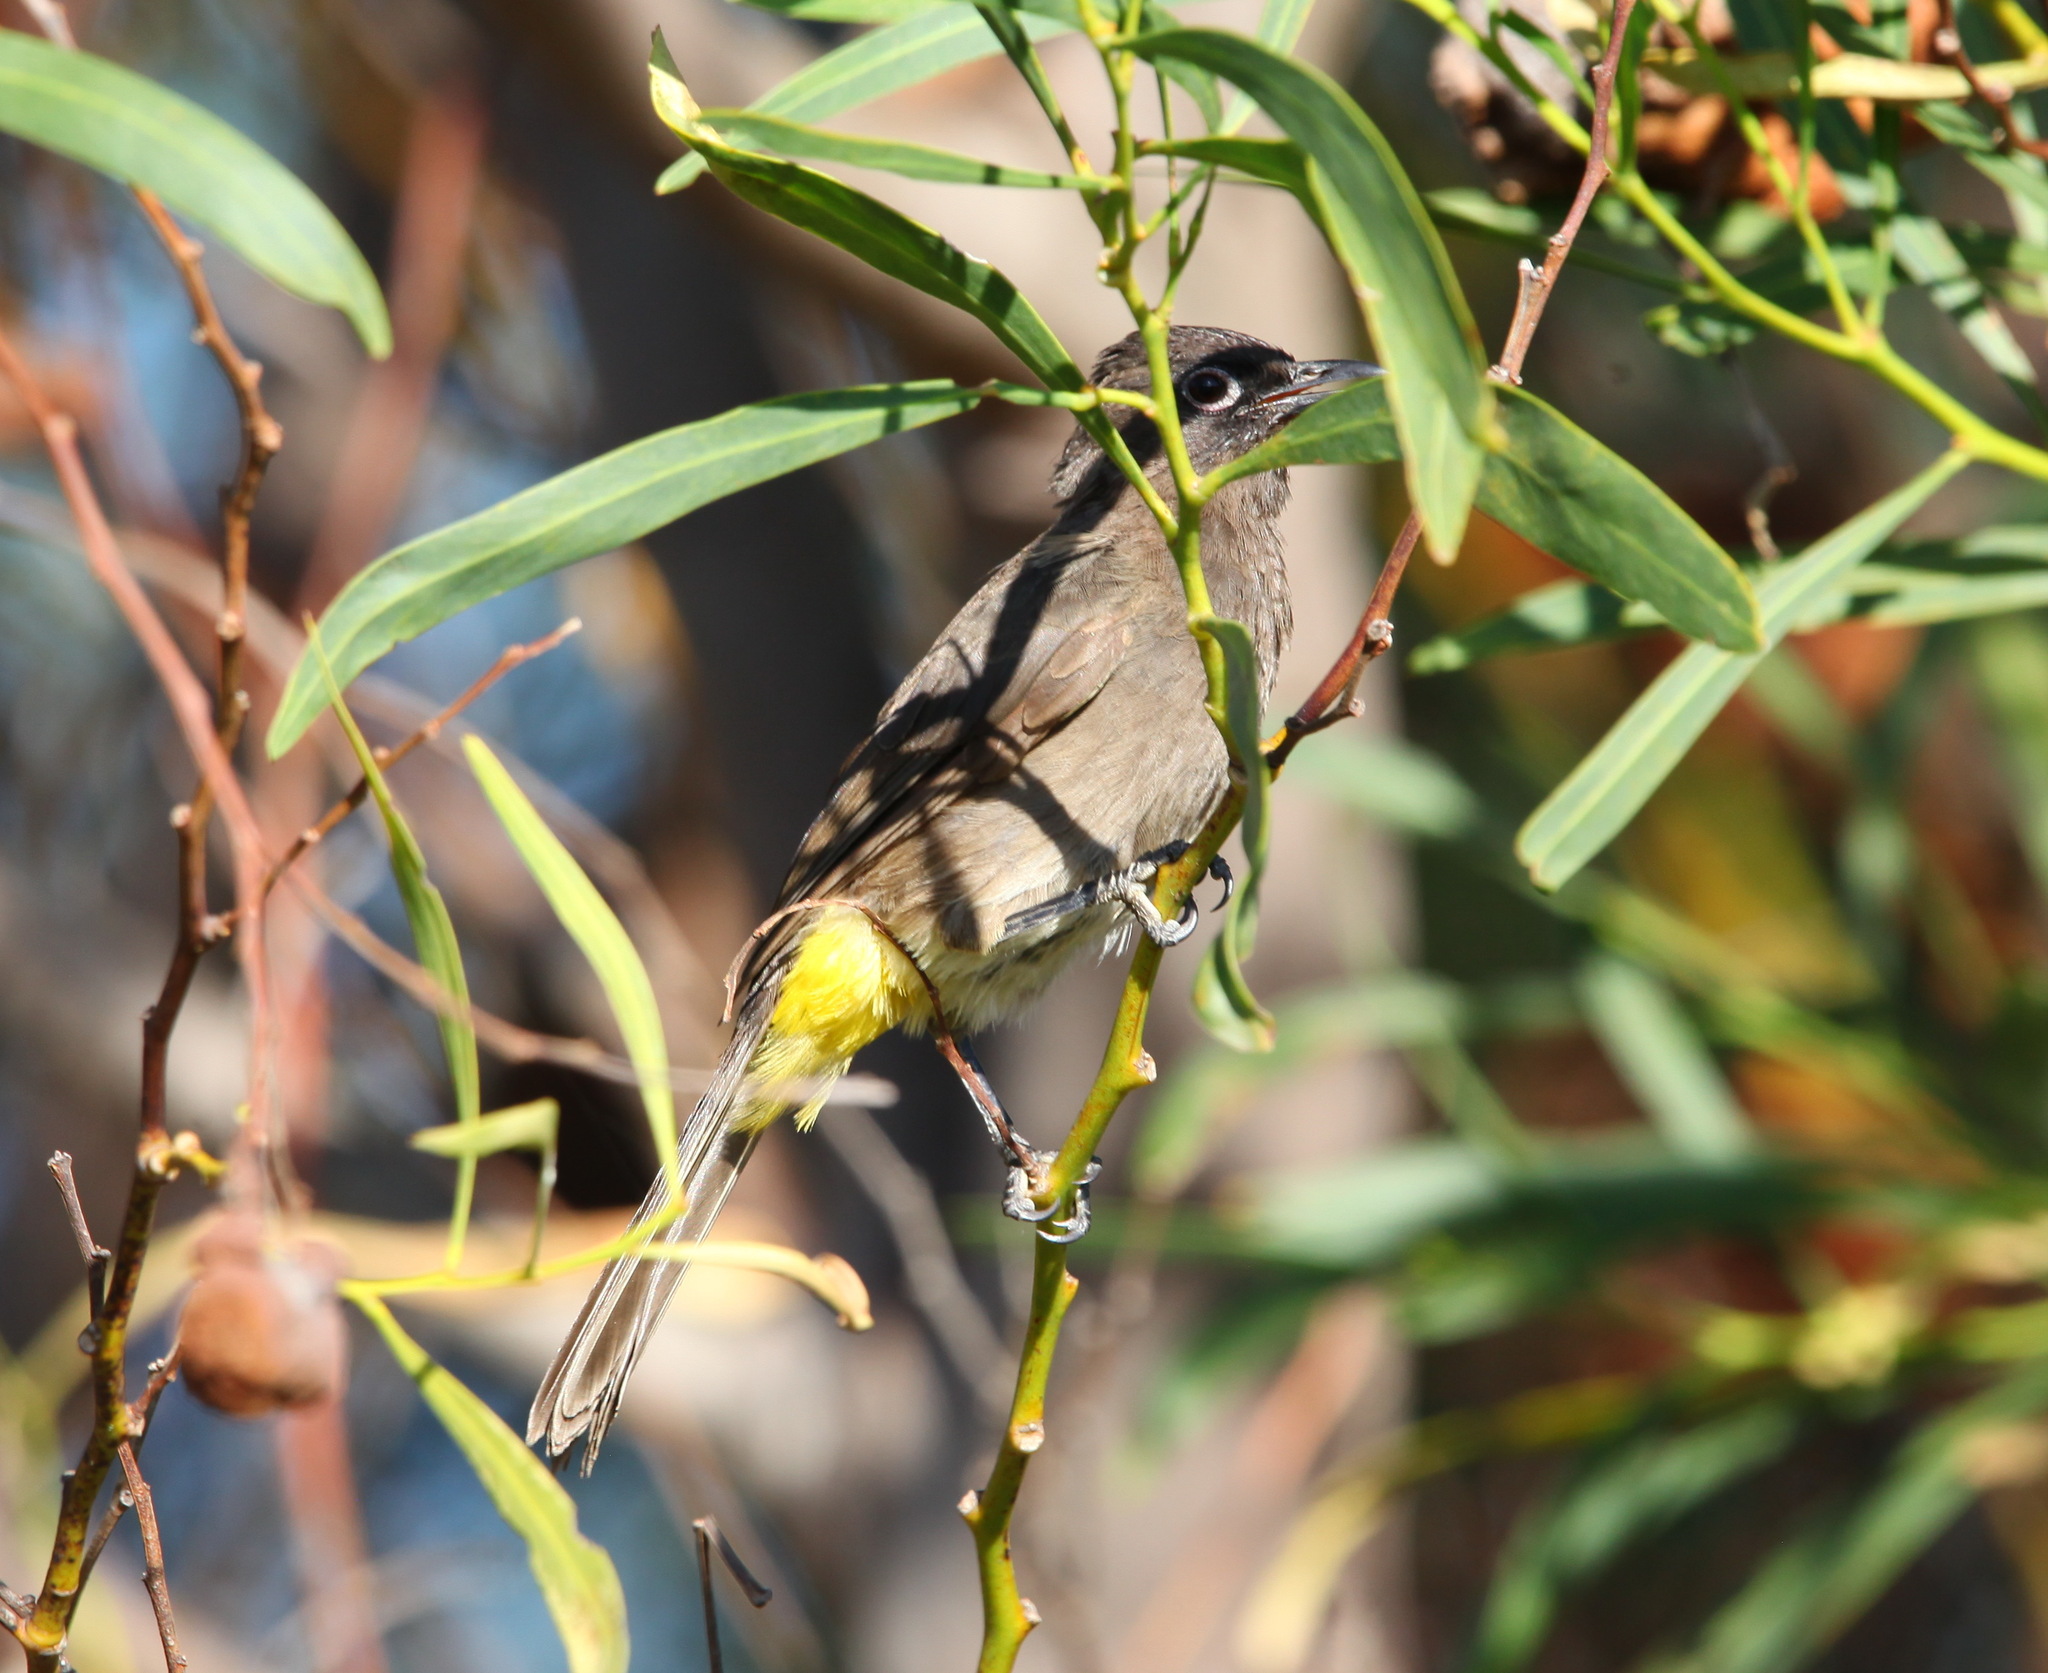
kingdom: Animalia
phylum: Chordata
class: Aves
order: Passeriformes
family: Pycnonotidae
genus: Pycnonotus
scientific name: Pycnonotus capensis
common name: Cape bulbul
